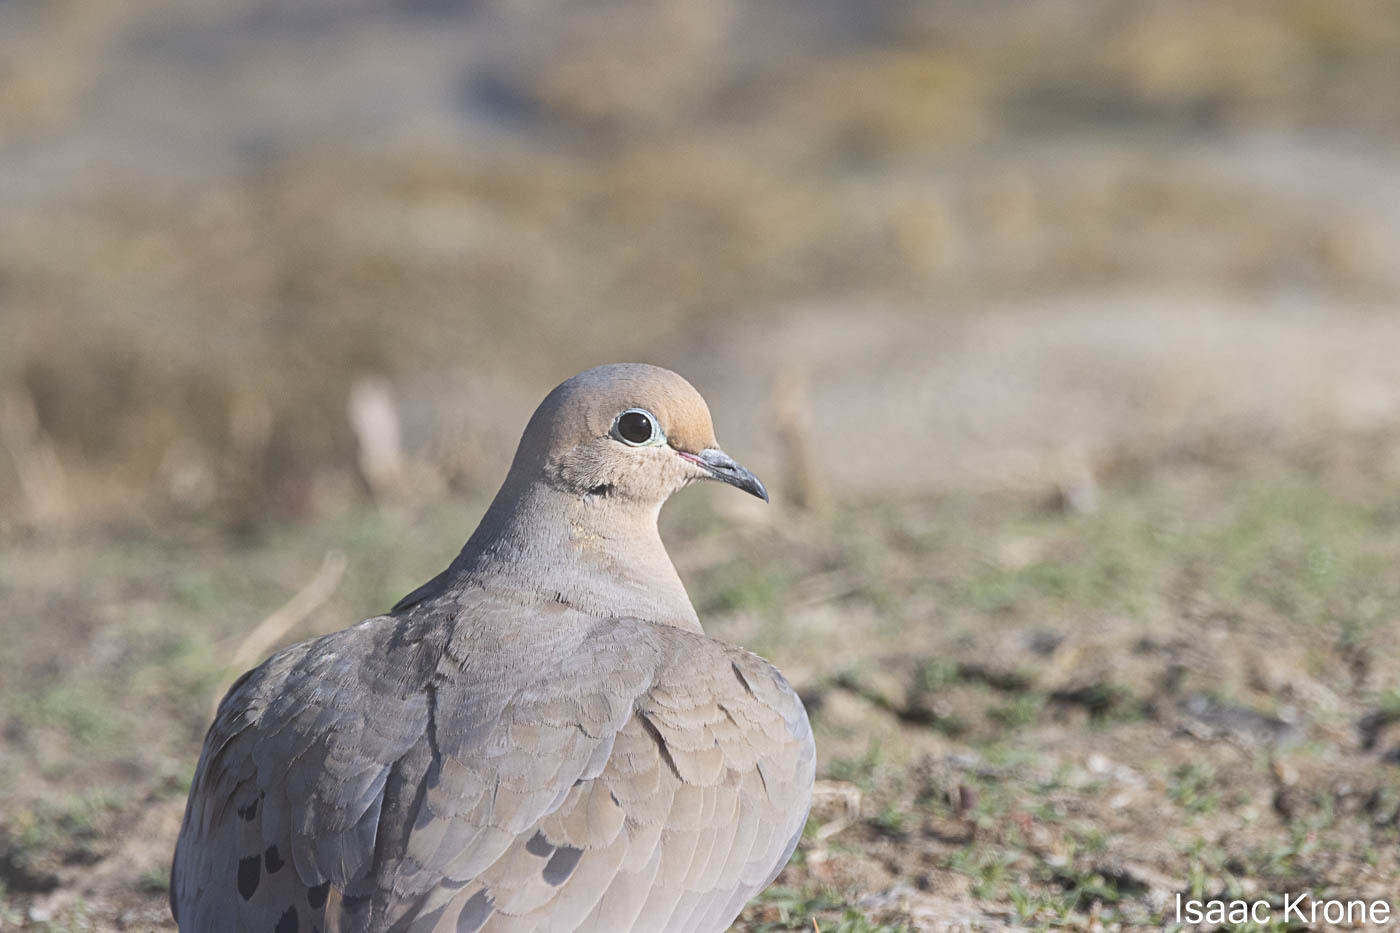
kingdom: Animalia
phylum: Chordata
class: Aves
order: Columbiformes
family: Columbidae
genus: Zenaida
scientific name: Zenaida macroura
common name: Mourning dove
